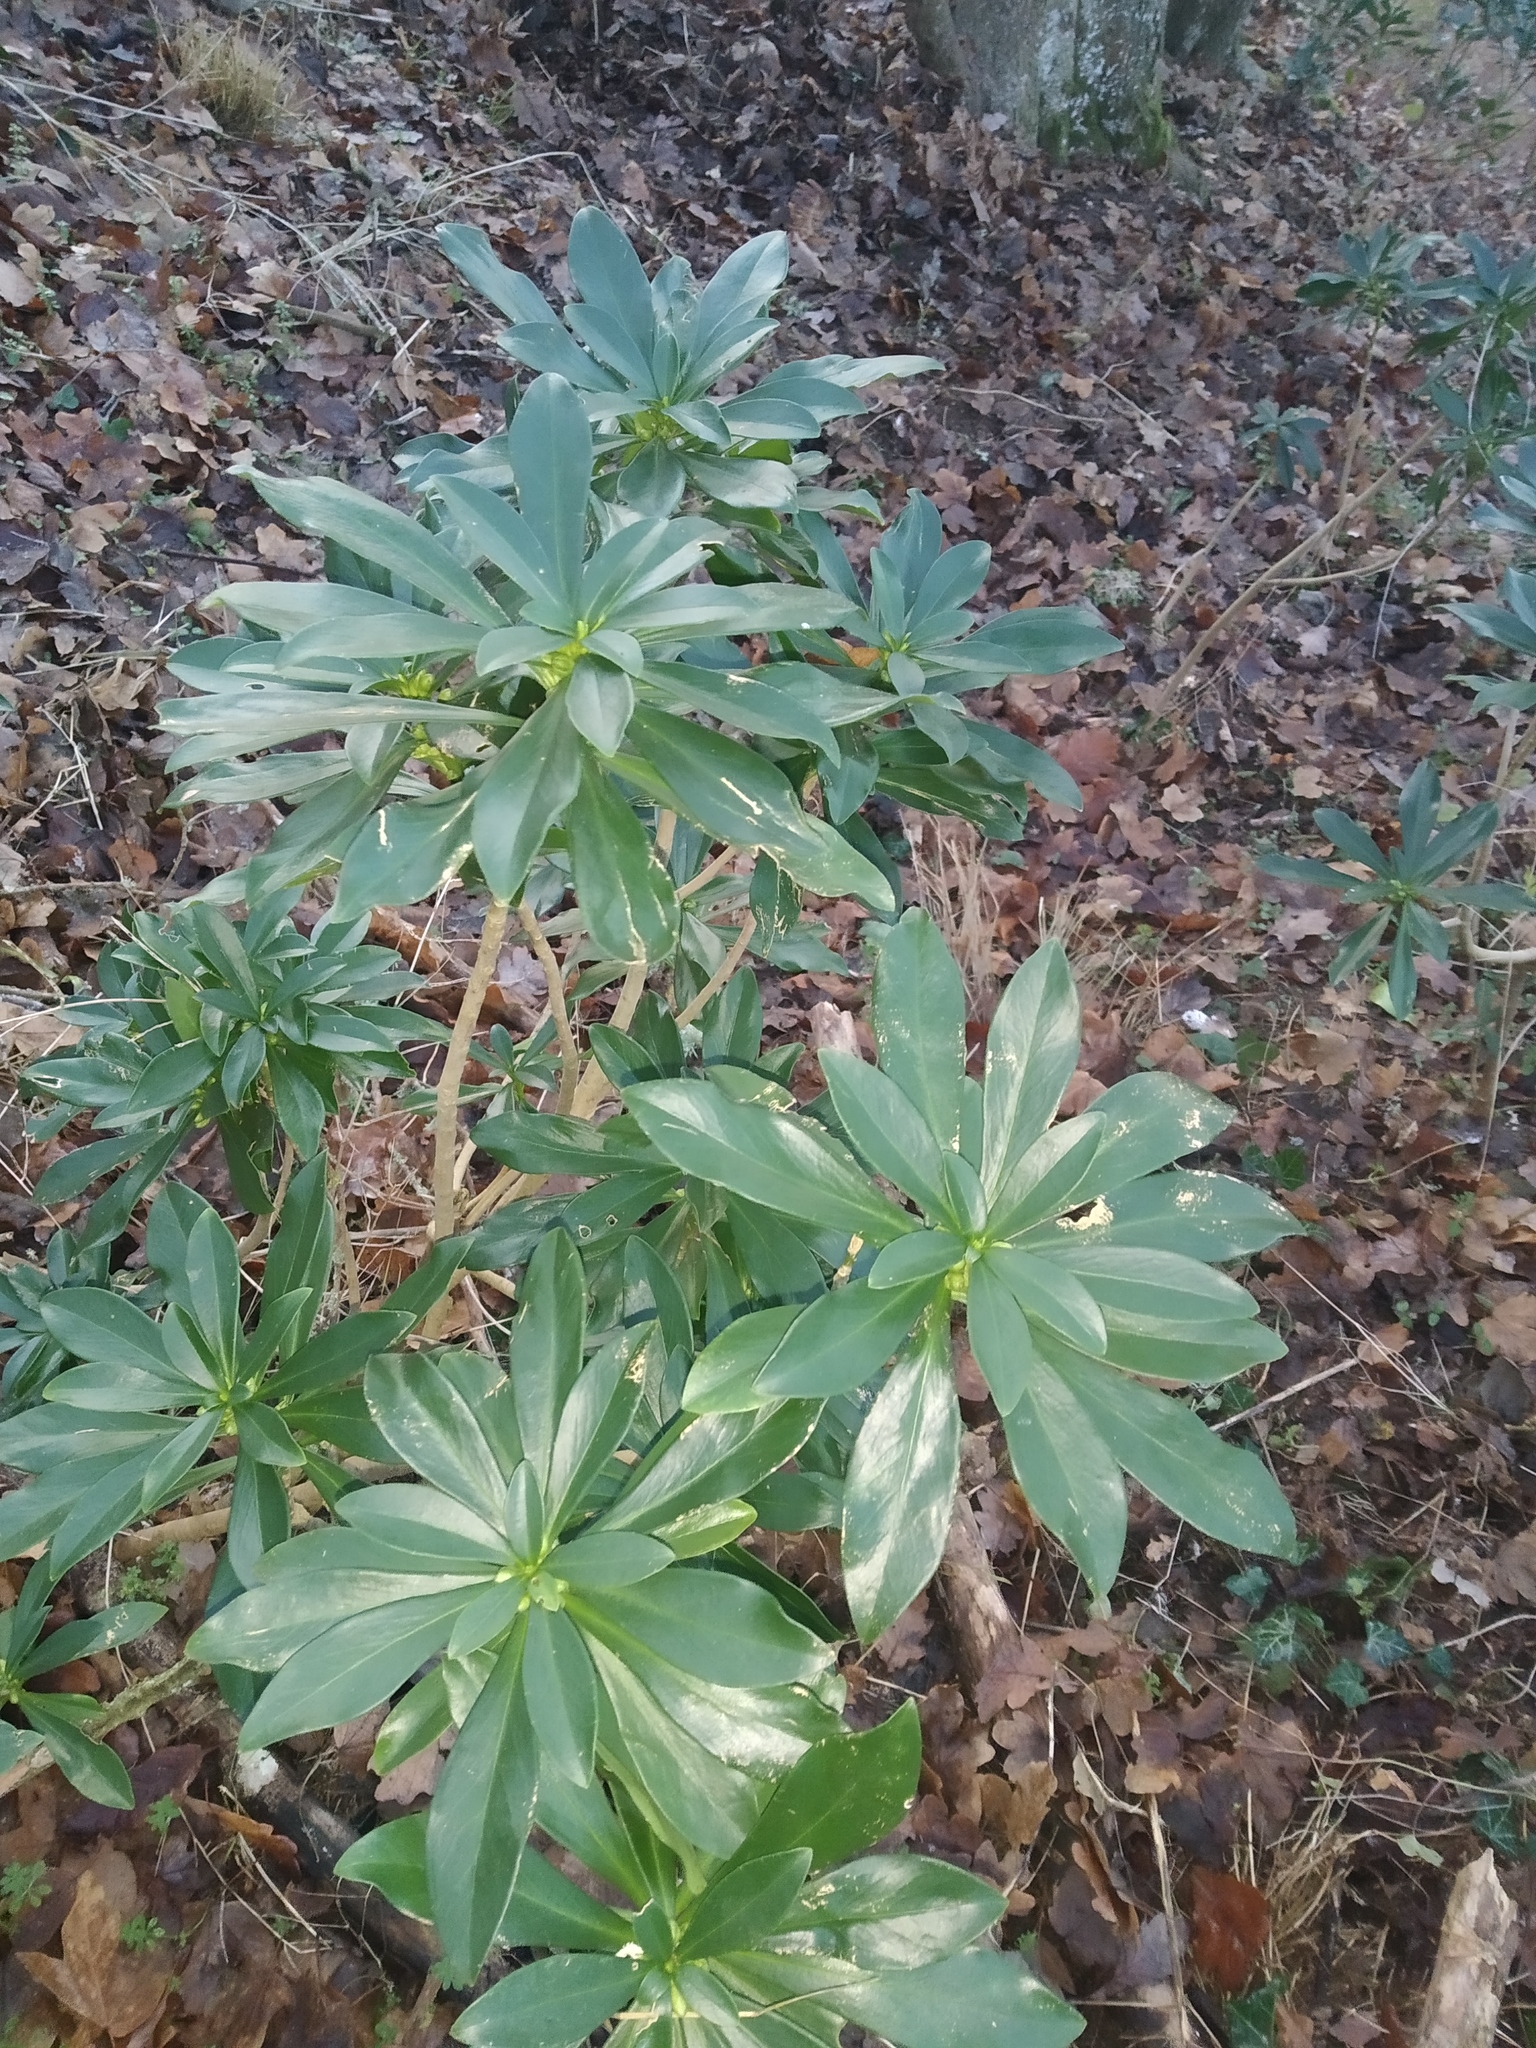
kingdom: Plantae
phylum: Tracheophyta
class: Magnoliopsida
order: Malvales
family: Thymelaeaceae
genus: Daphne
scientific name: Daphne laureola
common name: Spurge-laurel
